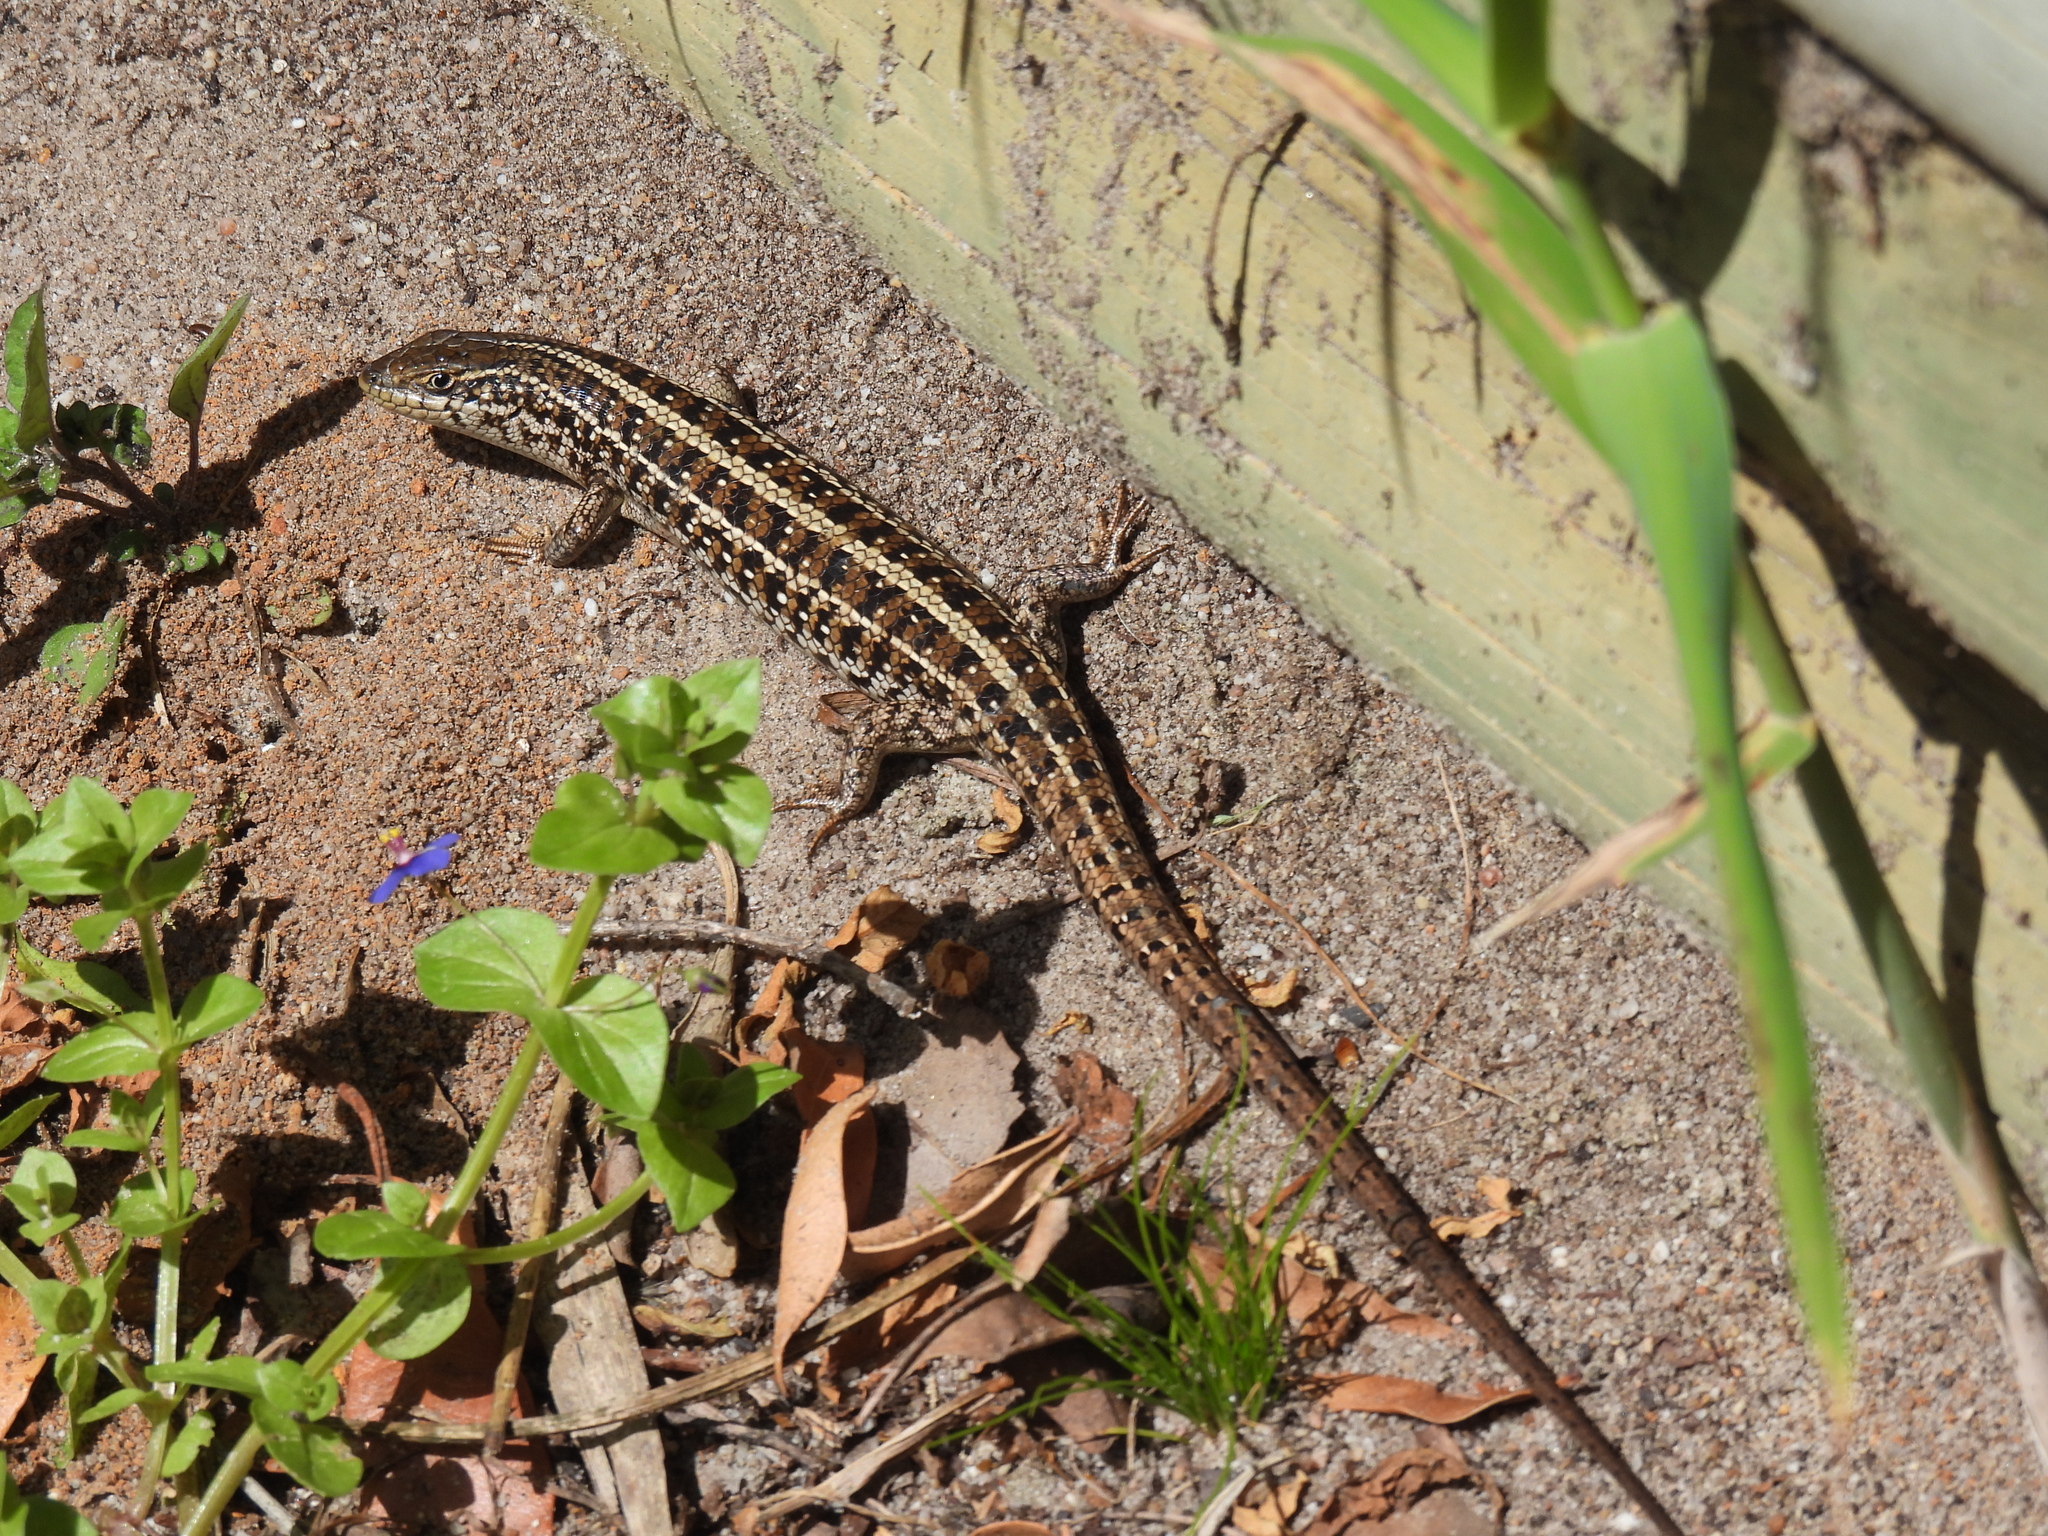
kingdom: Animalia
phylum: Chordata
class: Squamata
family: Scincidae
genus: Trachylepis
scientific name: Trachylepis capensis
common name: Cape skink
